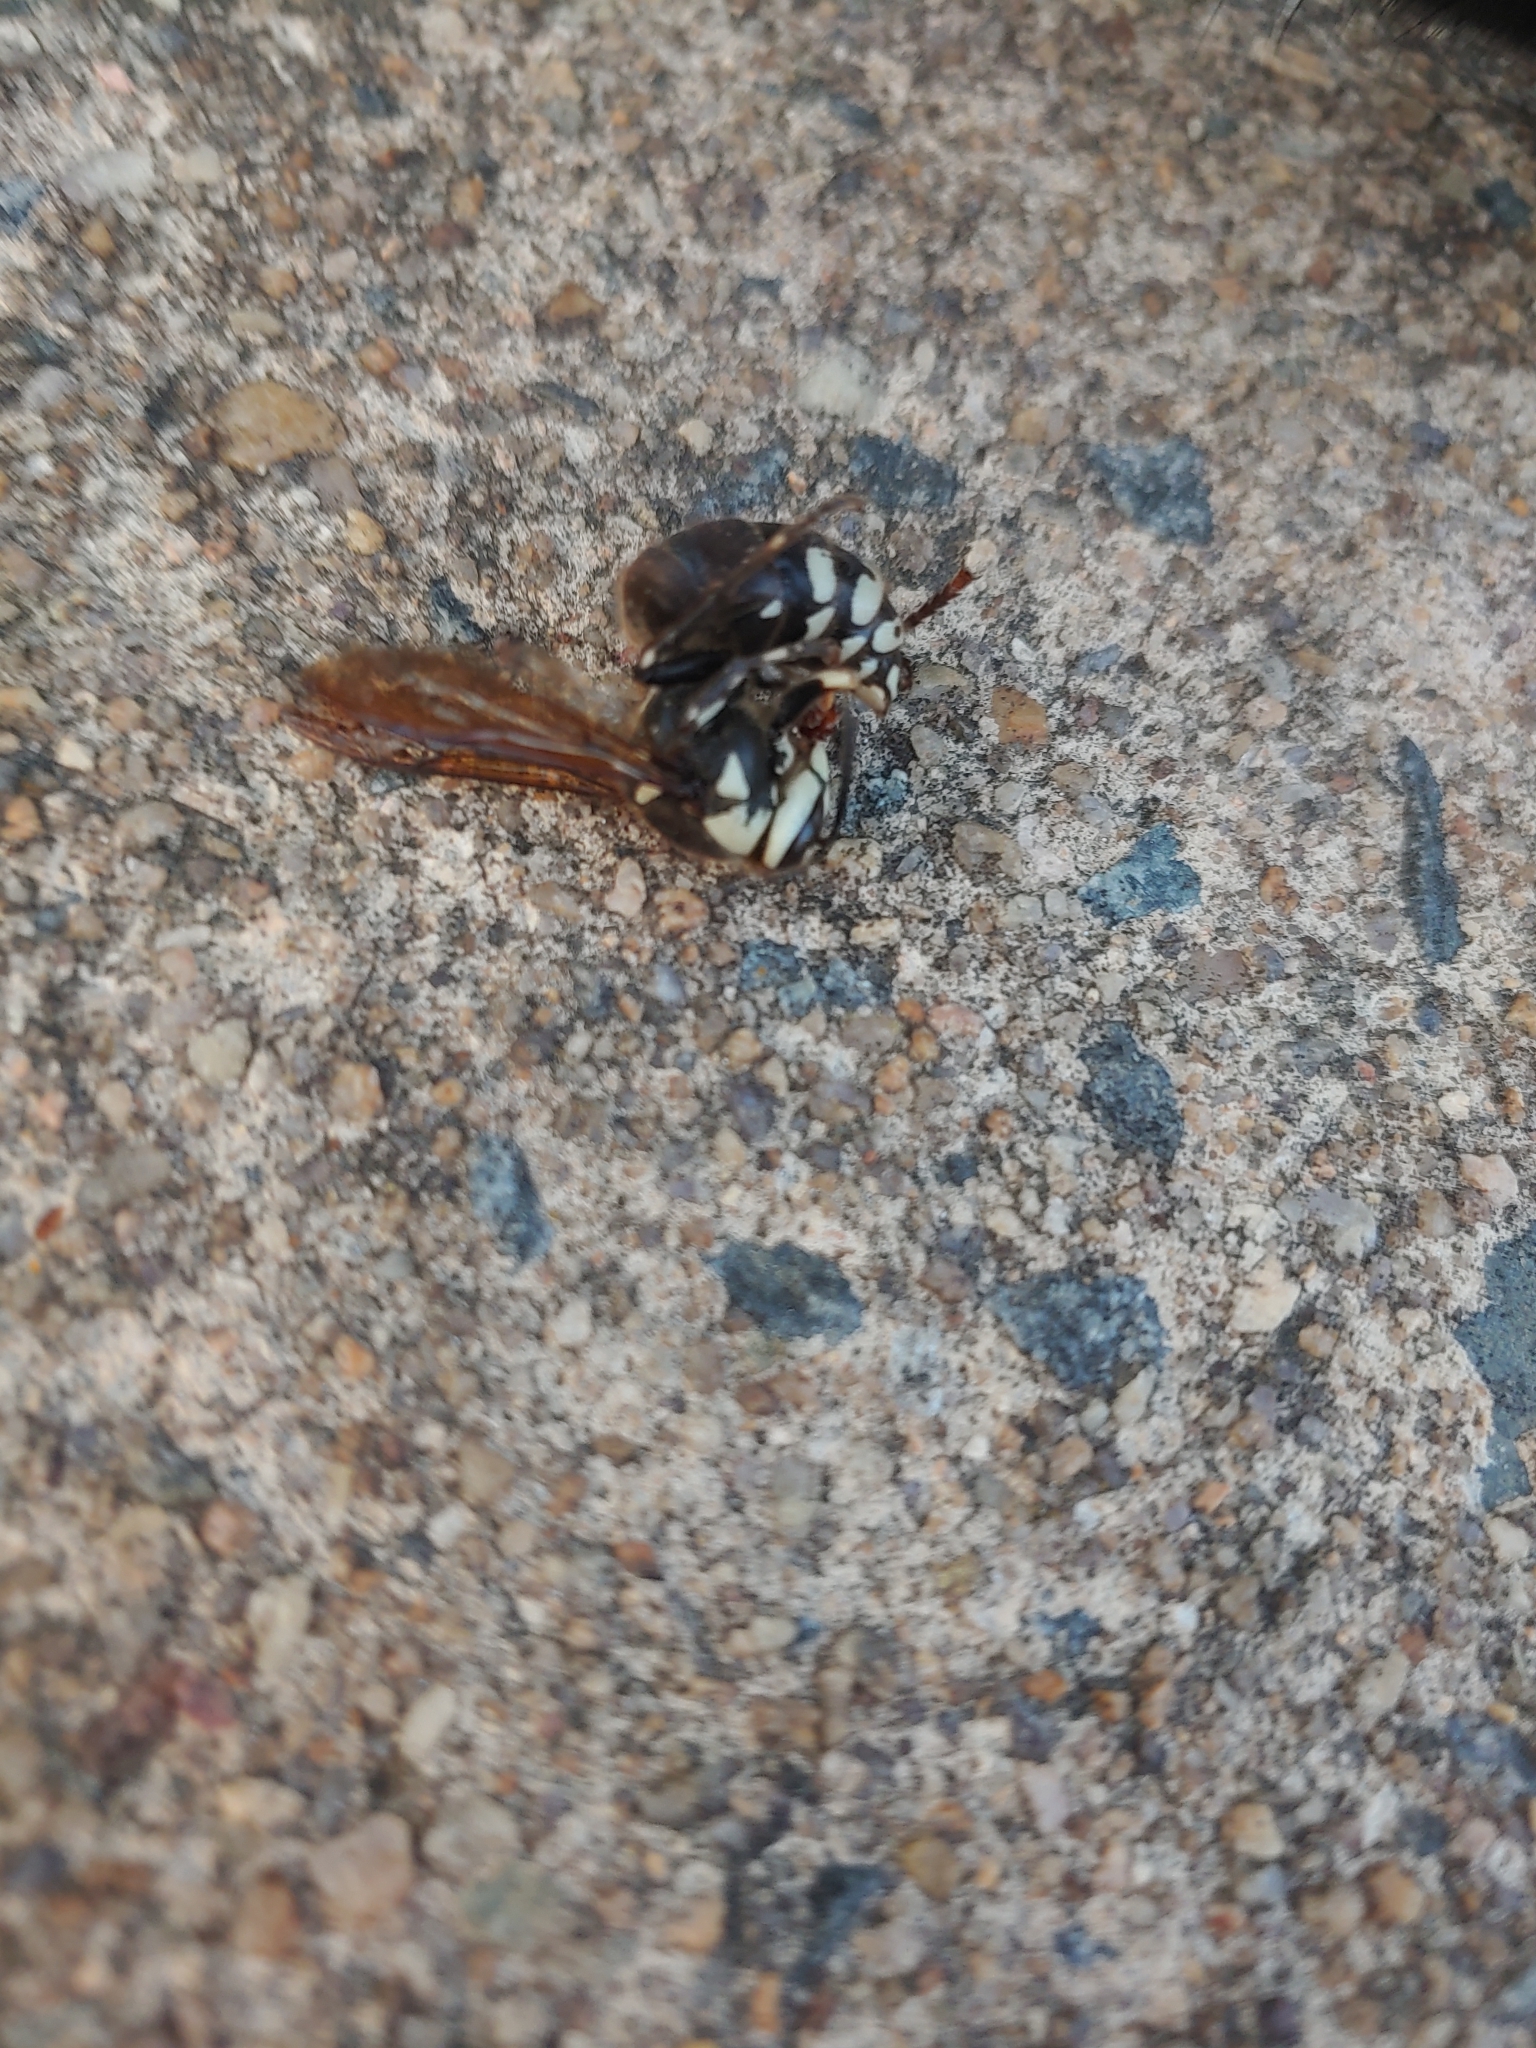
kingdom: Animalia
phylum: Arthropoda
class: Insecta
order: Hymenoptera
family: Vespidae
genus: Dolichovespula
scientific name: Dolichovespula maculata
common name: Bald-faced hornet
